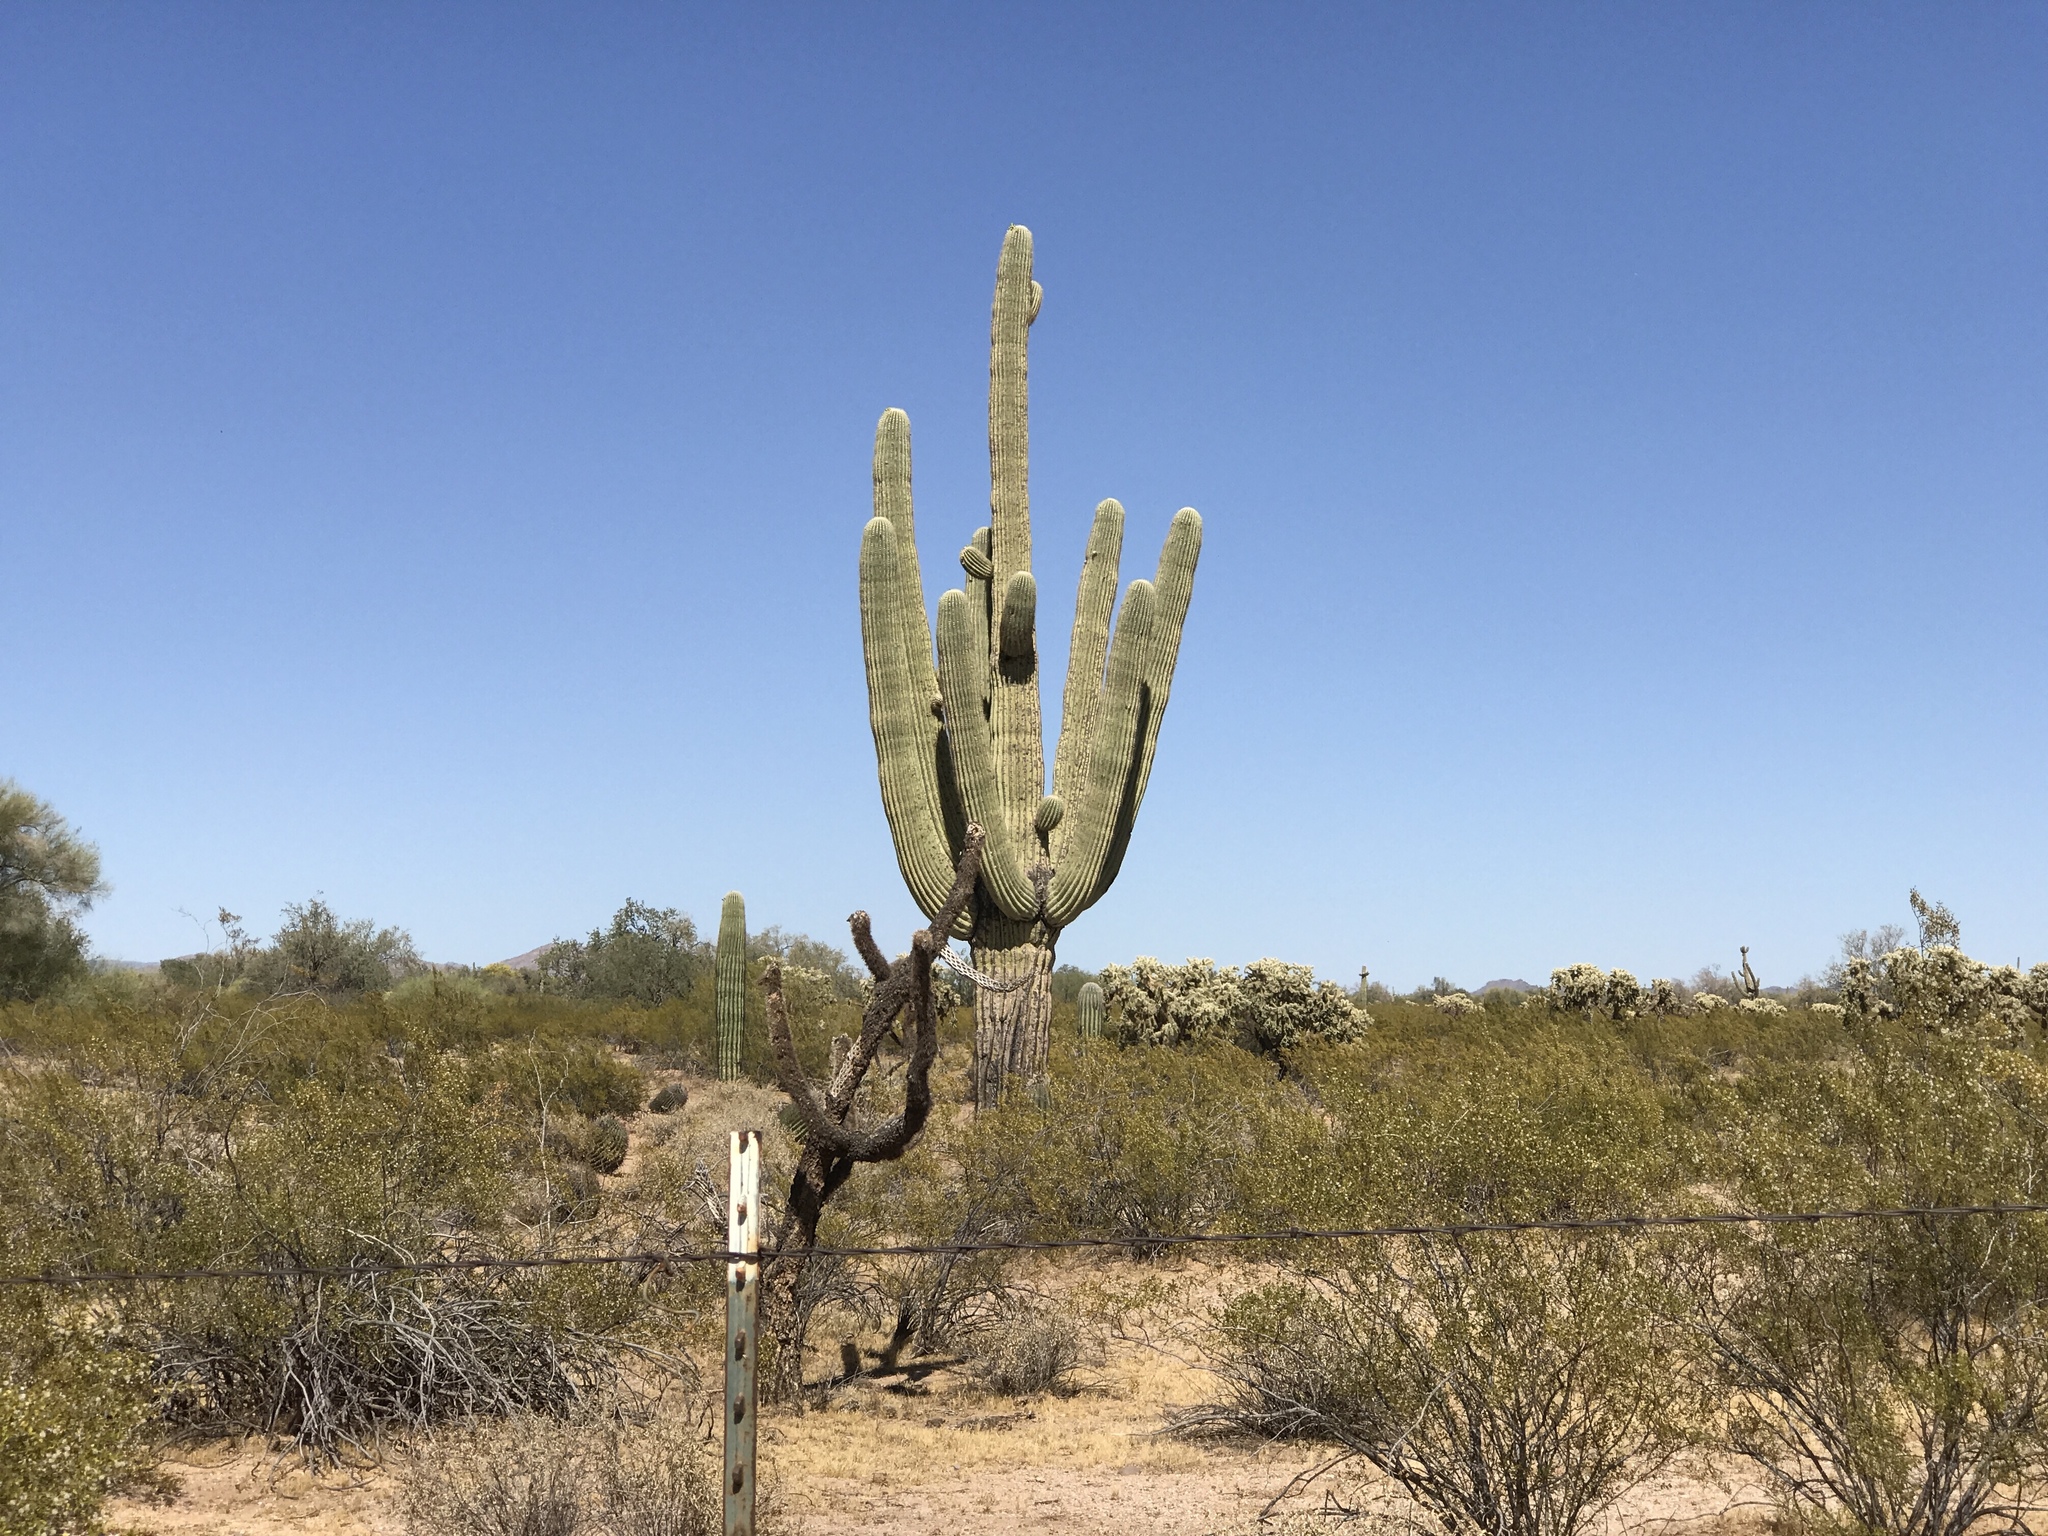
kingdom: Plantae
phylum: Tracheophyta
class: Magnoliopsida
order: Caryophyllales
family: Cactaceae
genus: Carnegiea
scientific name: Carnegiea gigantea
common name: Saguaro
